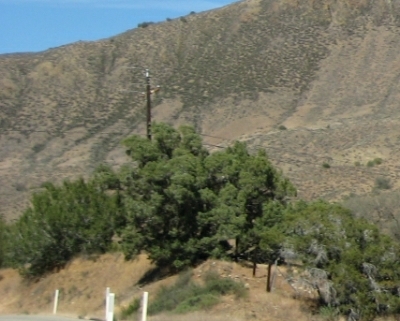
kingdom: Plantae
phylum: Tracheophyta
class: Pinopsida
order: Pinales
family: Cupressaceae
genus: Juniperus
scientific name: Juniperus californica
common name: California juniper
